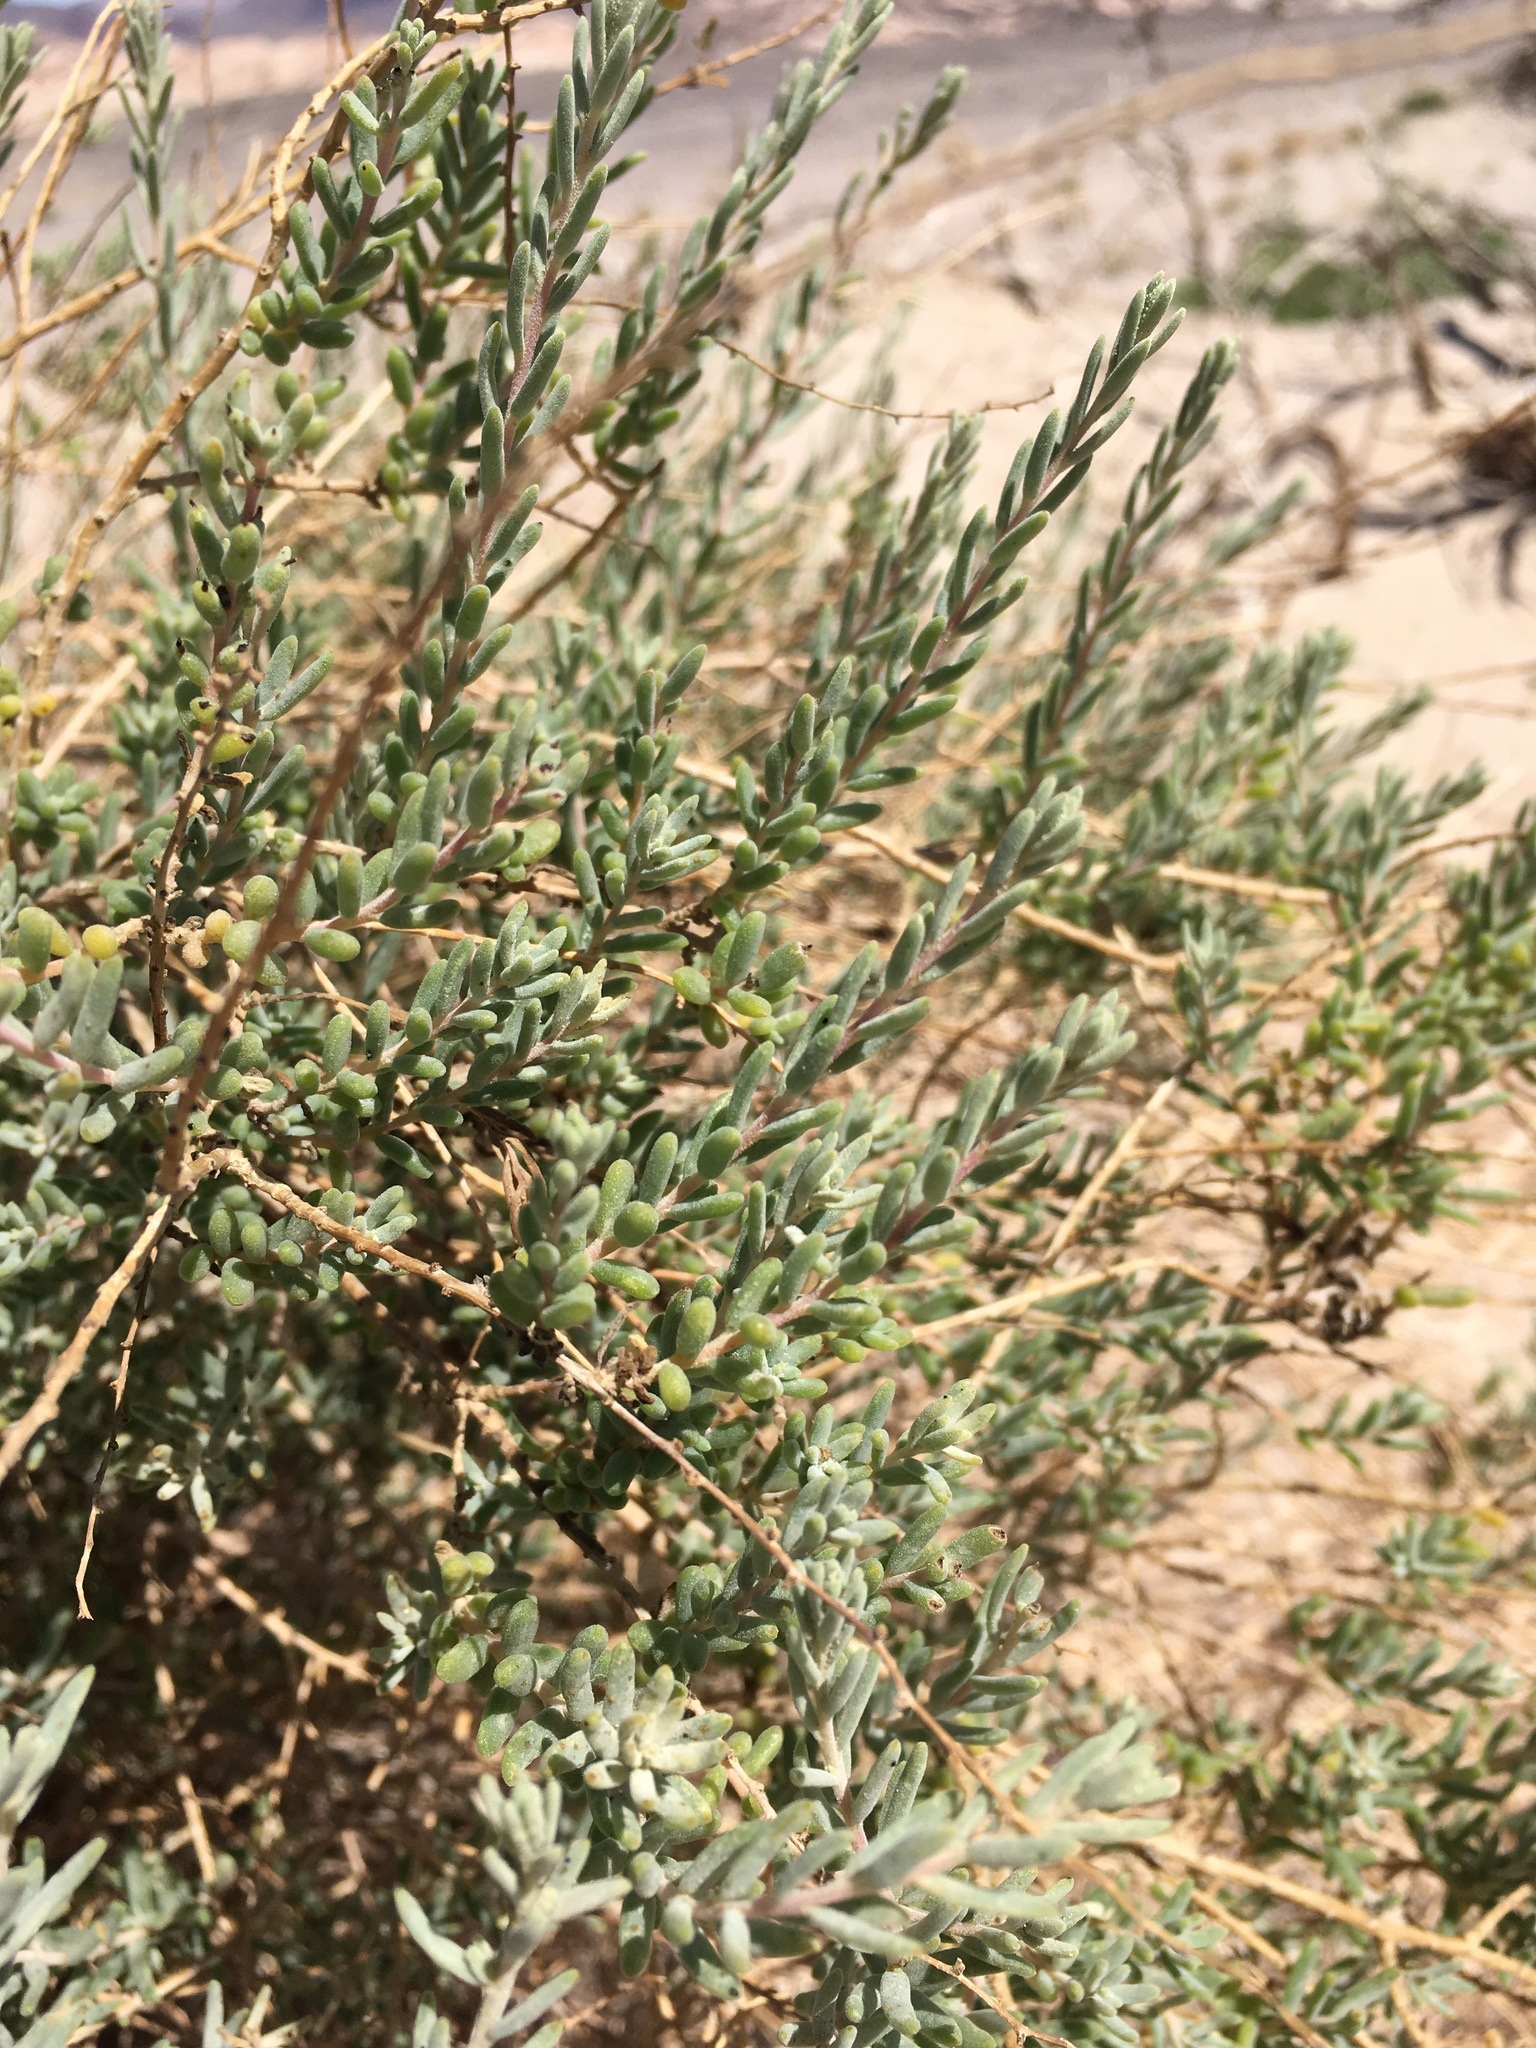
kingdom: Plantae
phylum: Tracheophyta
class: Magnoliopsida
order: Caryophyllales
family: Amaranthaceae
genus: Suaeda
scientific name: Suaeda nigra
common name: Bush seepweed
